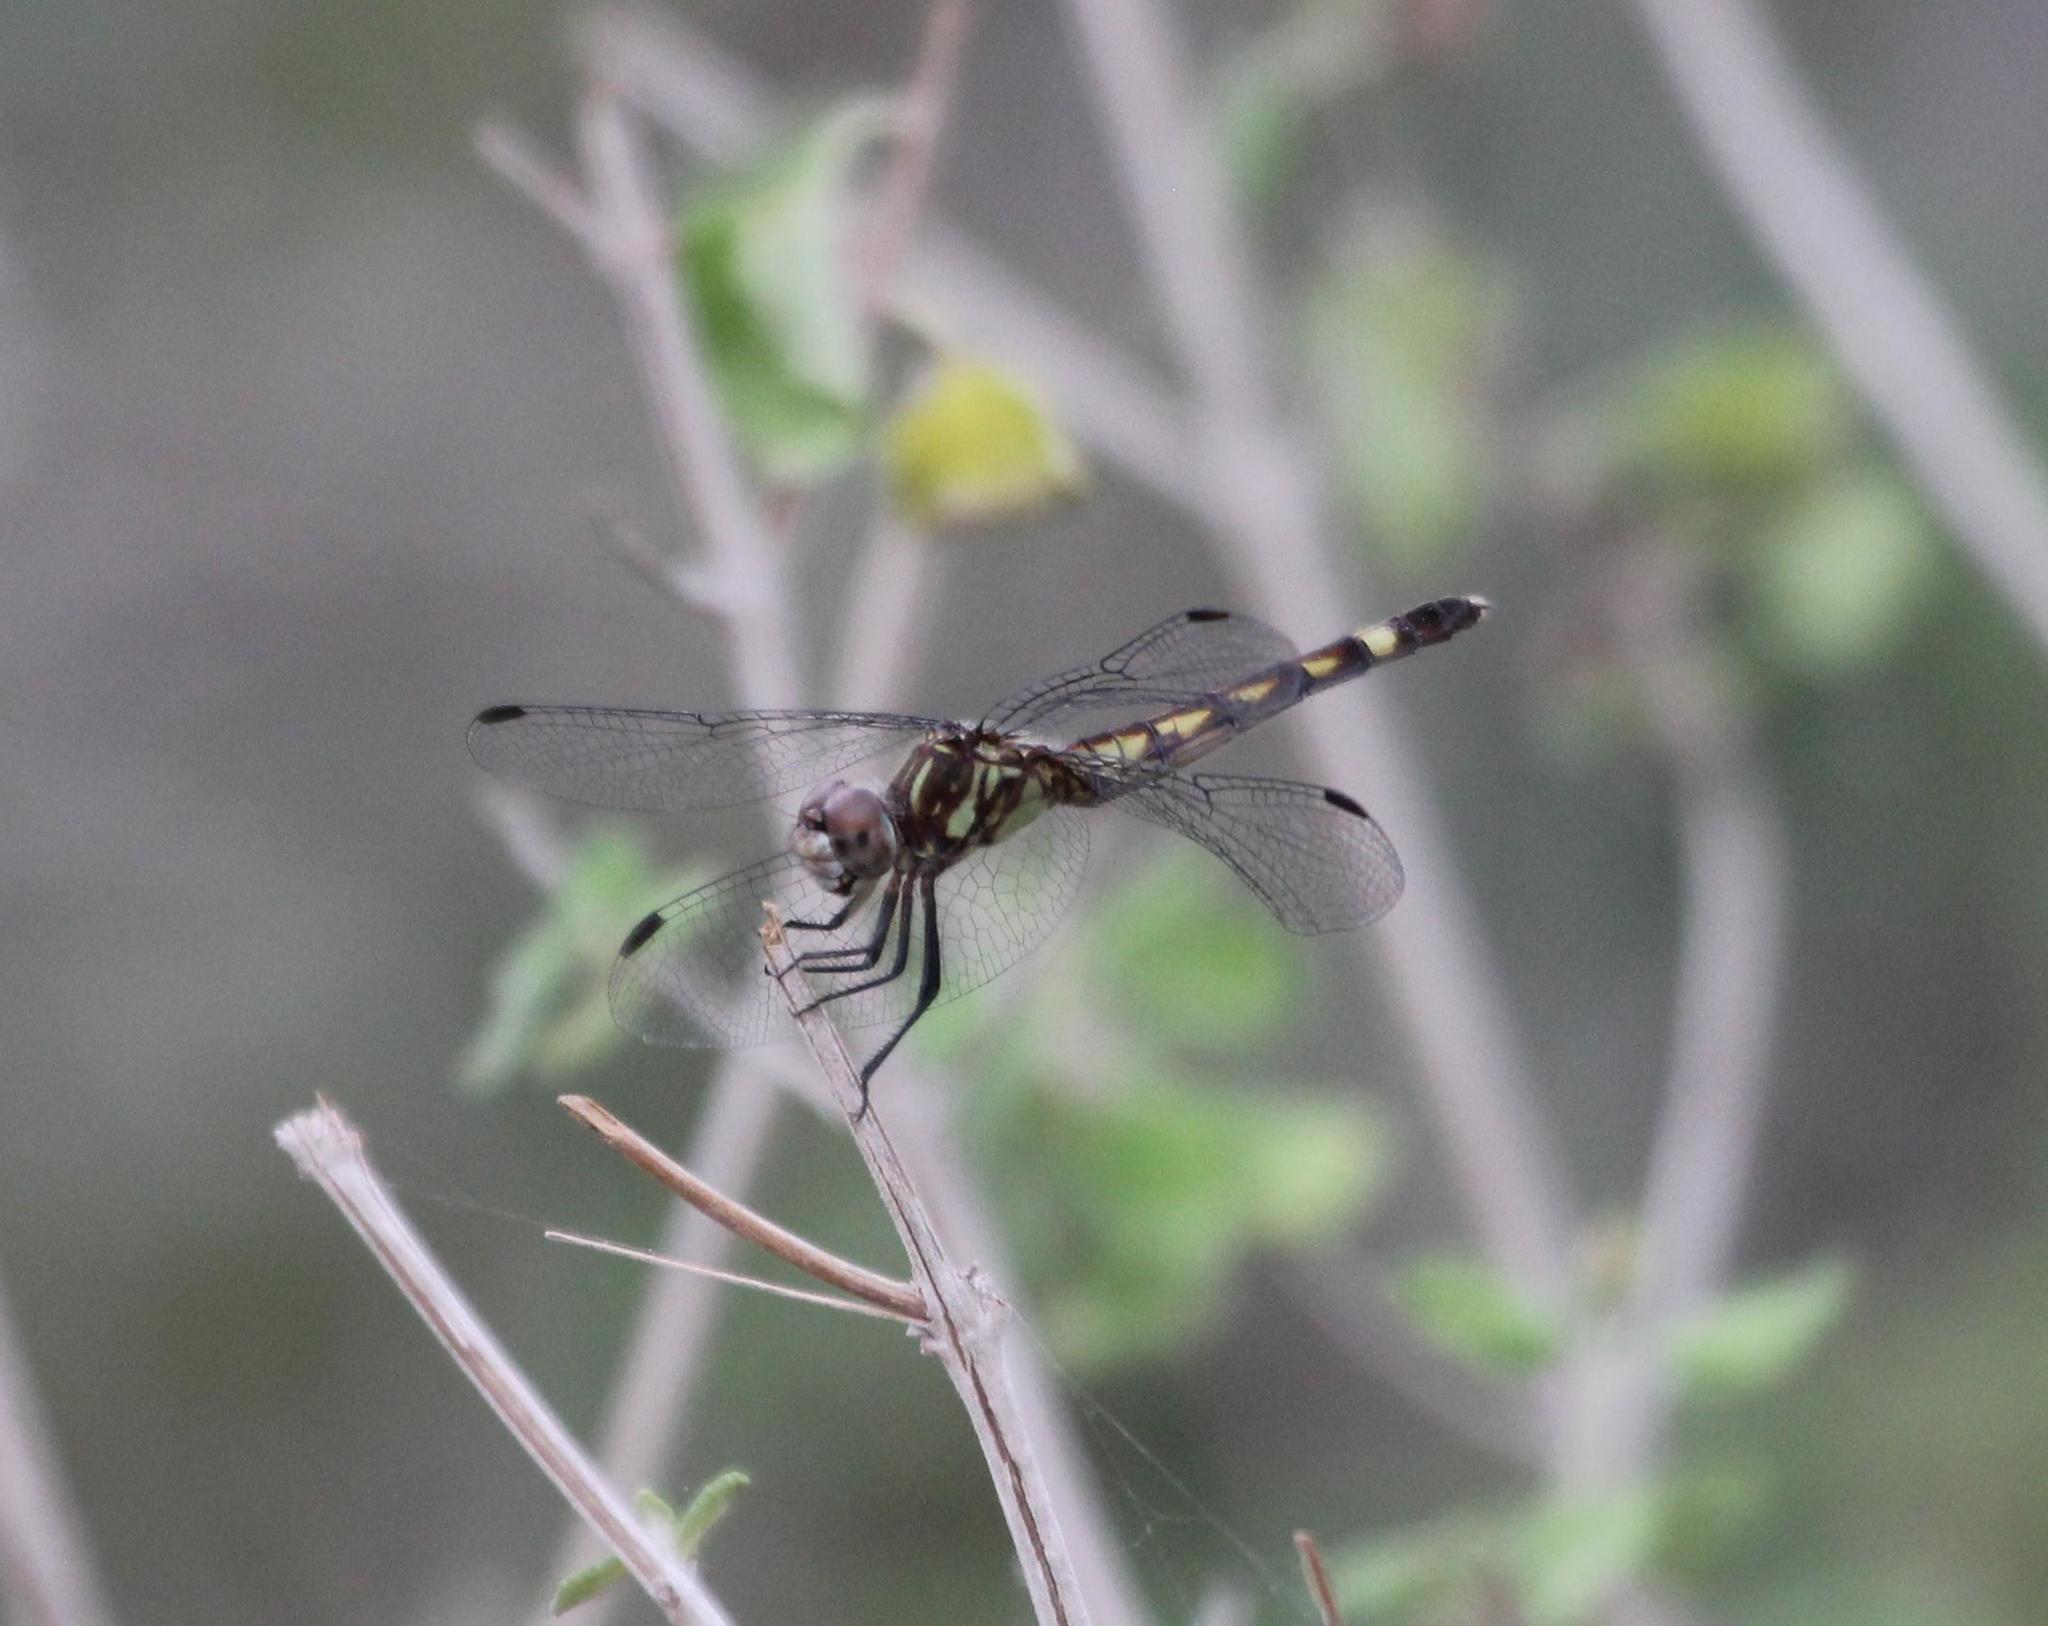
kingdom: Animalia
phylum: Arthropoda
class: Insecta
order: Odonata
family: Libellulidae
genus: Micrathyria
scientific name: Micrathyria hagenii
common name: Thornbush dasher
